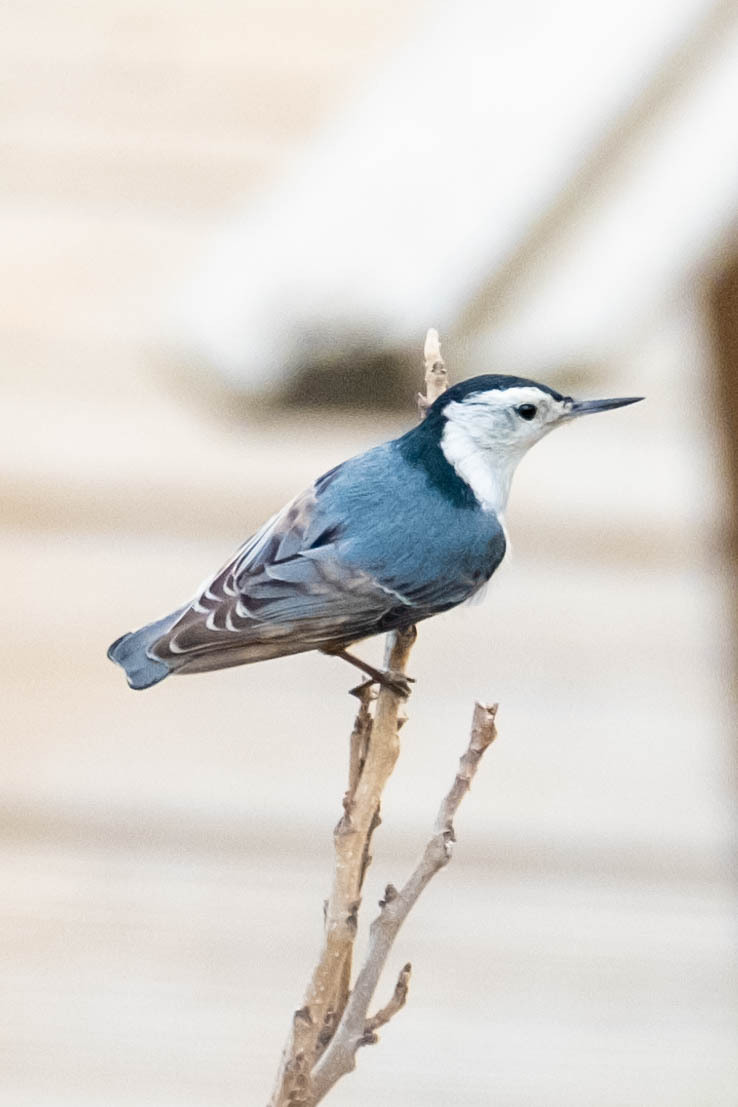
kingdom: Animalia
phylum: Chordata
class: Aves
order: Passeriformes
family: Sittidae
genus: Sitta
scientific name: Sitta carolinensis
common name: White-breasted nuthatch
